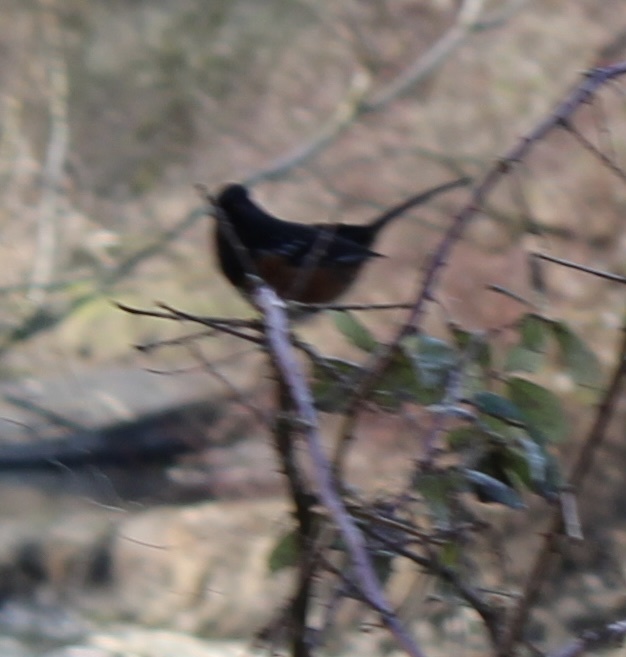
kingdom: Animalia
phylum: Chordata
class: Aves
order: Passeriformes
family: Passerellidae
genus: Pipilo
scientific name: Pipilo maculatus
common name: Spotted towhee
